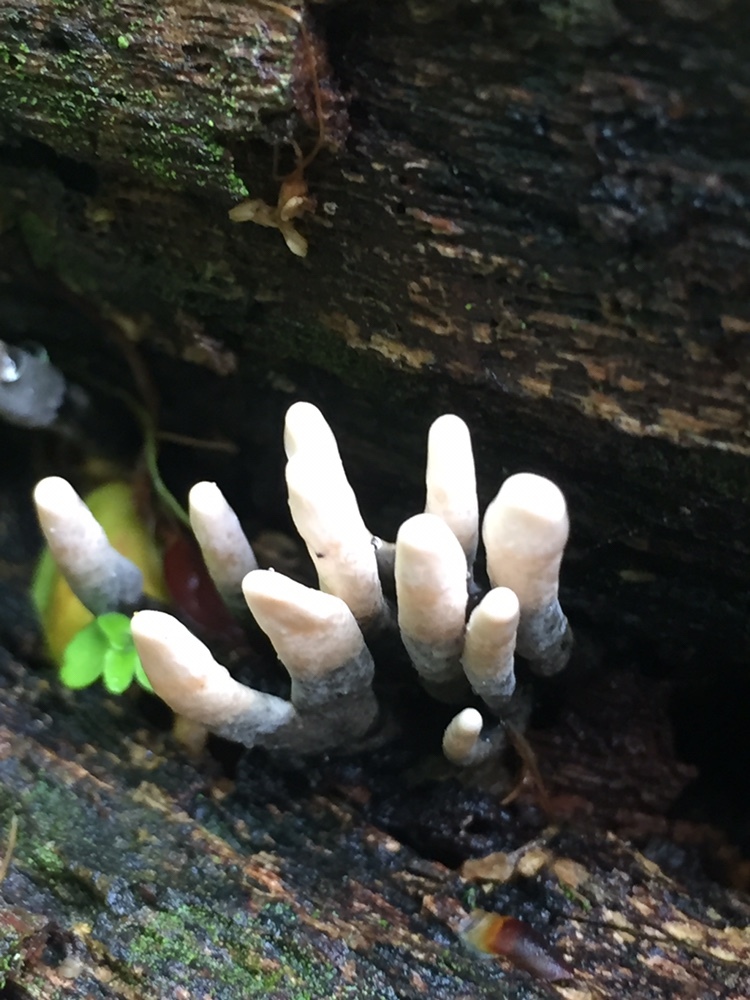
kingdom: Fungi
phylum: Ascomycota
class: Sordariomycetes
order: Xylariales
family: Xylariaceae
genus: Xylaria
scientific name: Xylaria polymorpha
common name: Dead man's fingers
